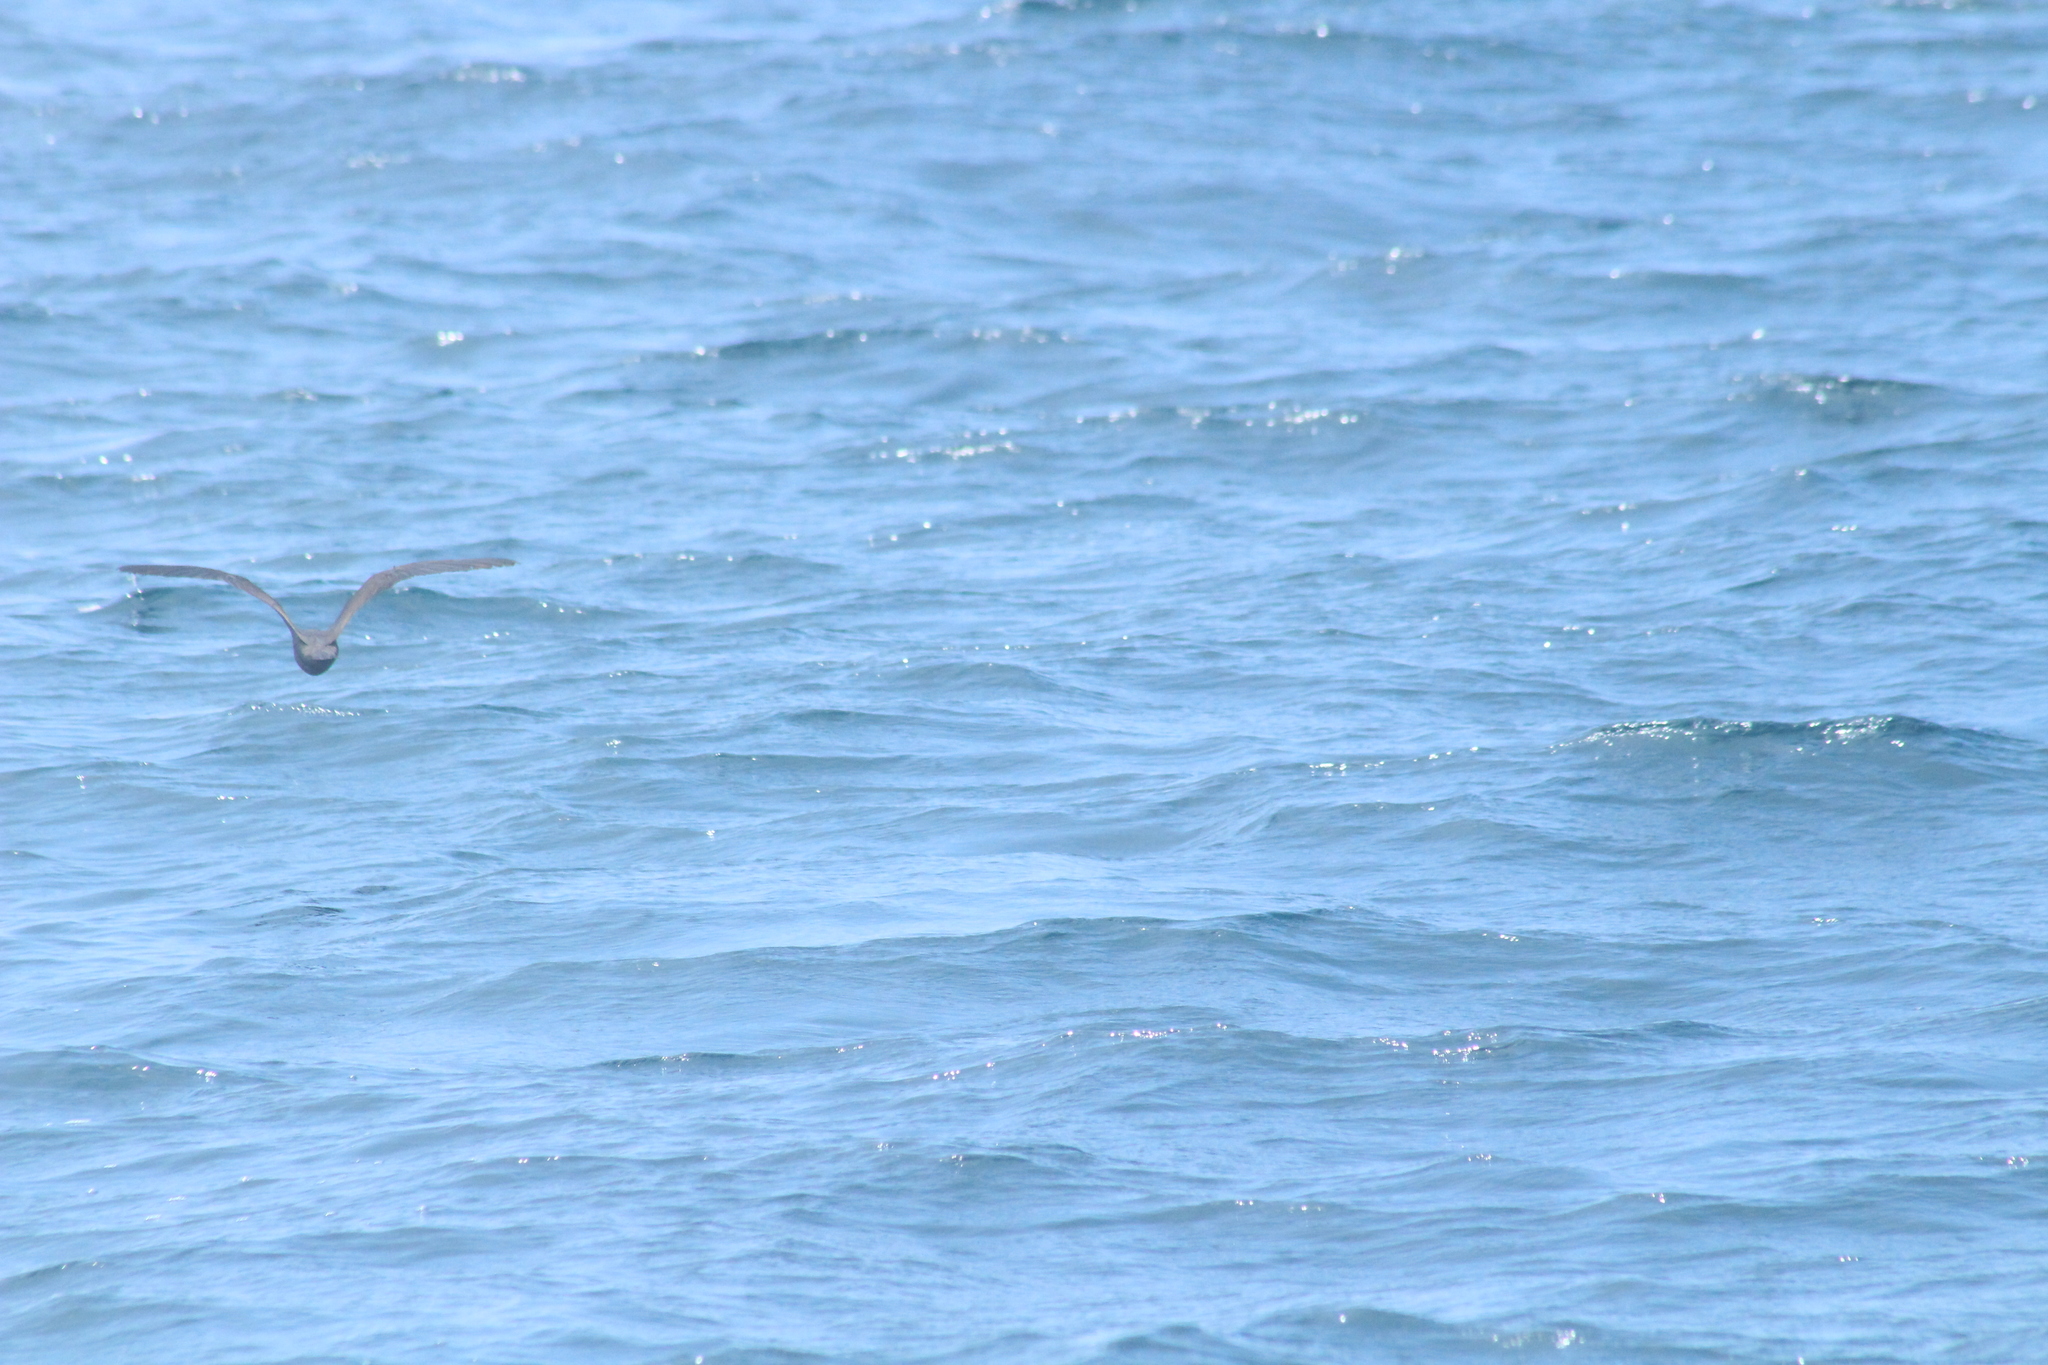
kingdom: Animalia
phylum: Chordata
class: Aves
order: Charadriiformes
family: Laridae
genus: Anous
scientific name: Anous stolidus
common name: Brown noddy
